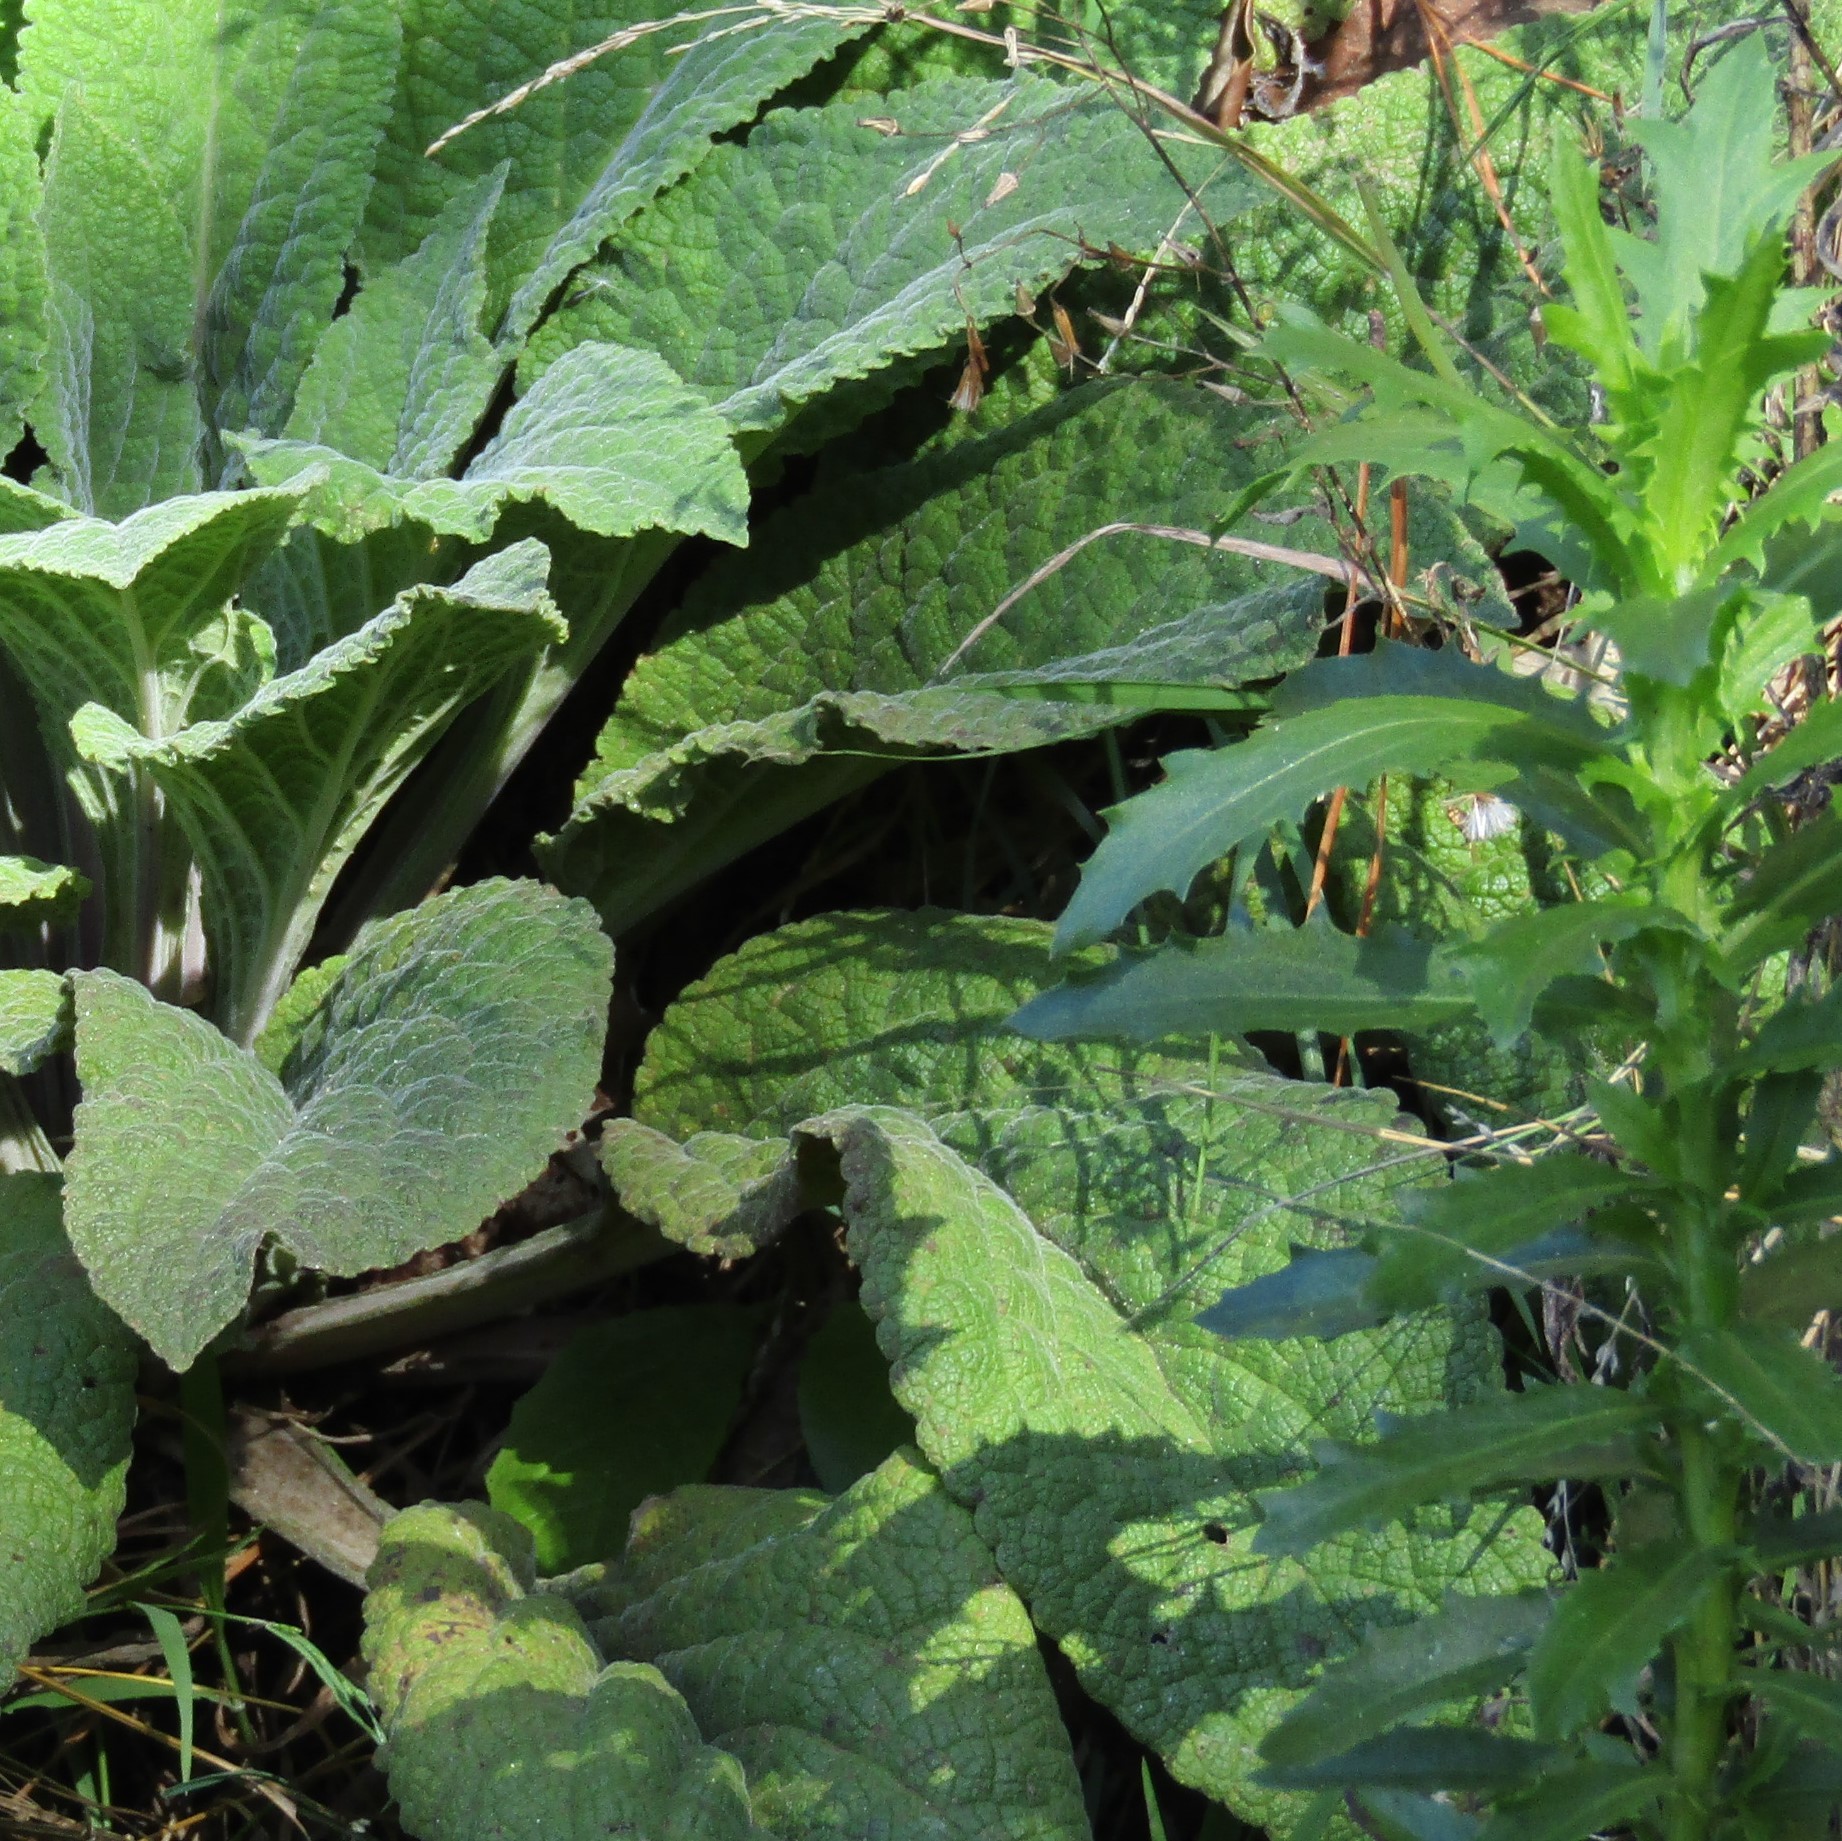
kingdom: Plantae
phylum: Tracheophyta
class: Magnoliopsida
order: Asterales
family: Asteraceae
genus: Senecio
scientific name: Senecio glastifolius
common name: Woad-leaved ragwort
